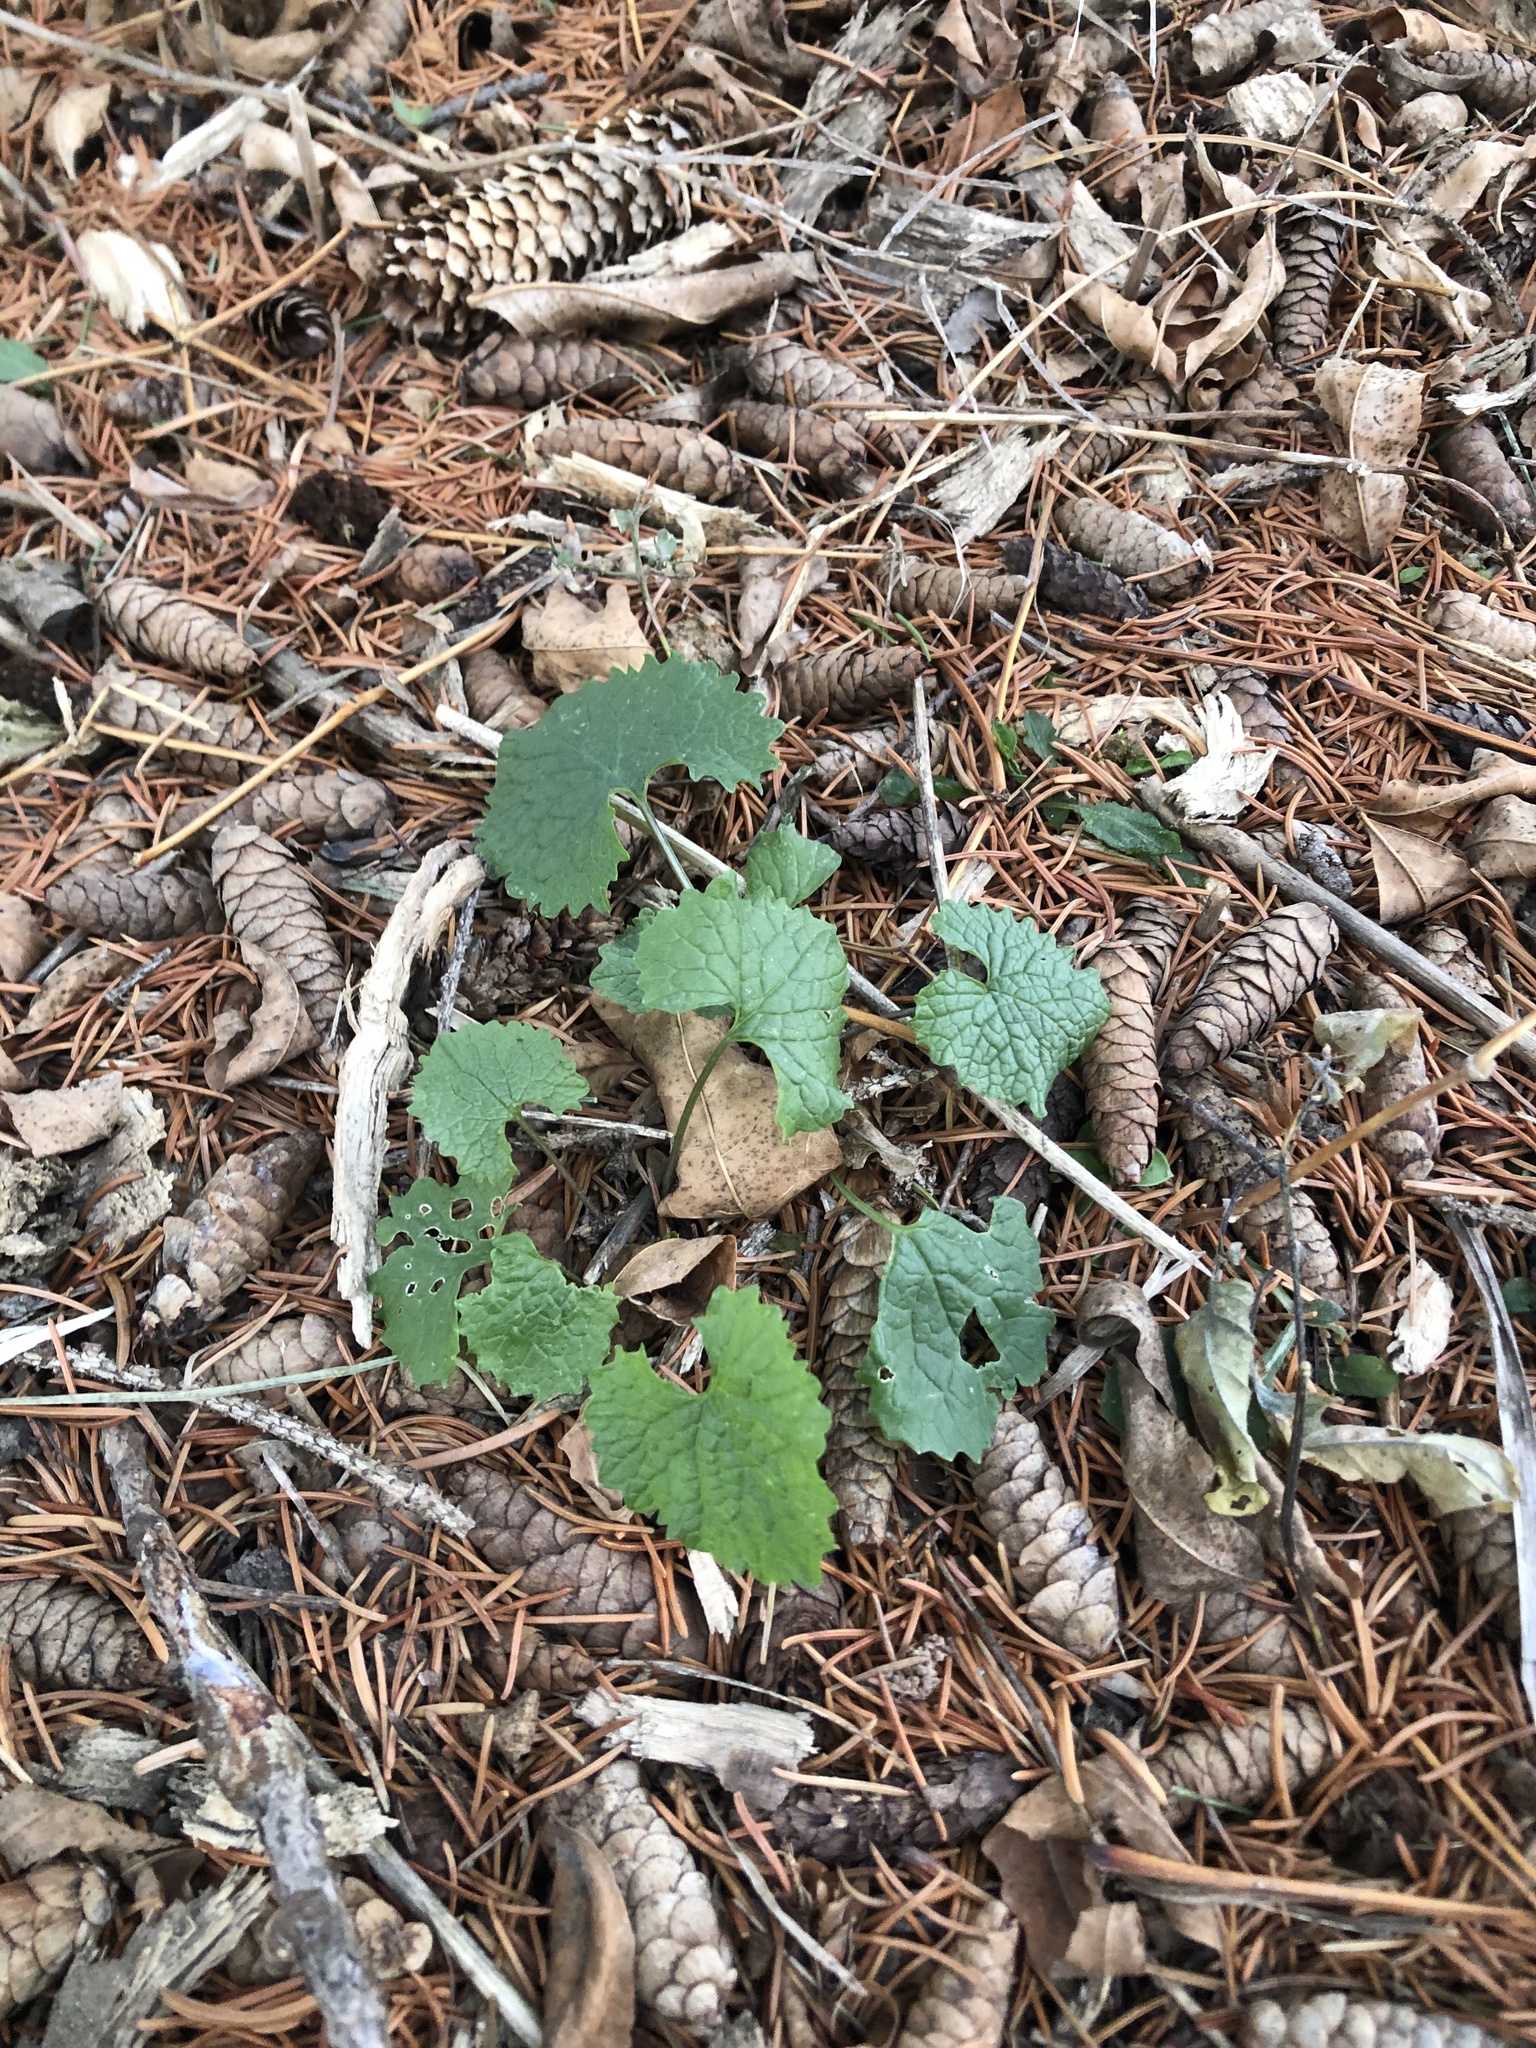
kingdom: Plantae
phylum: Tracheophyta
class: Magnoliopsida
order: Brassicales
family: Brassicaceae
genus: Alliaria
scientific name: Alliaria petiolata
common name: Garlic mustard
